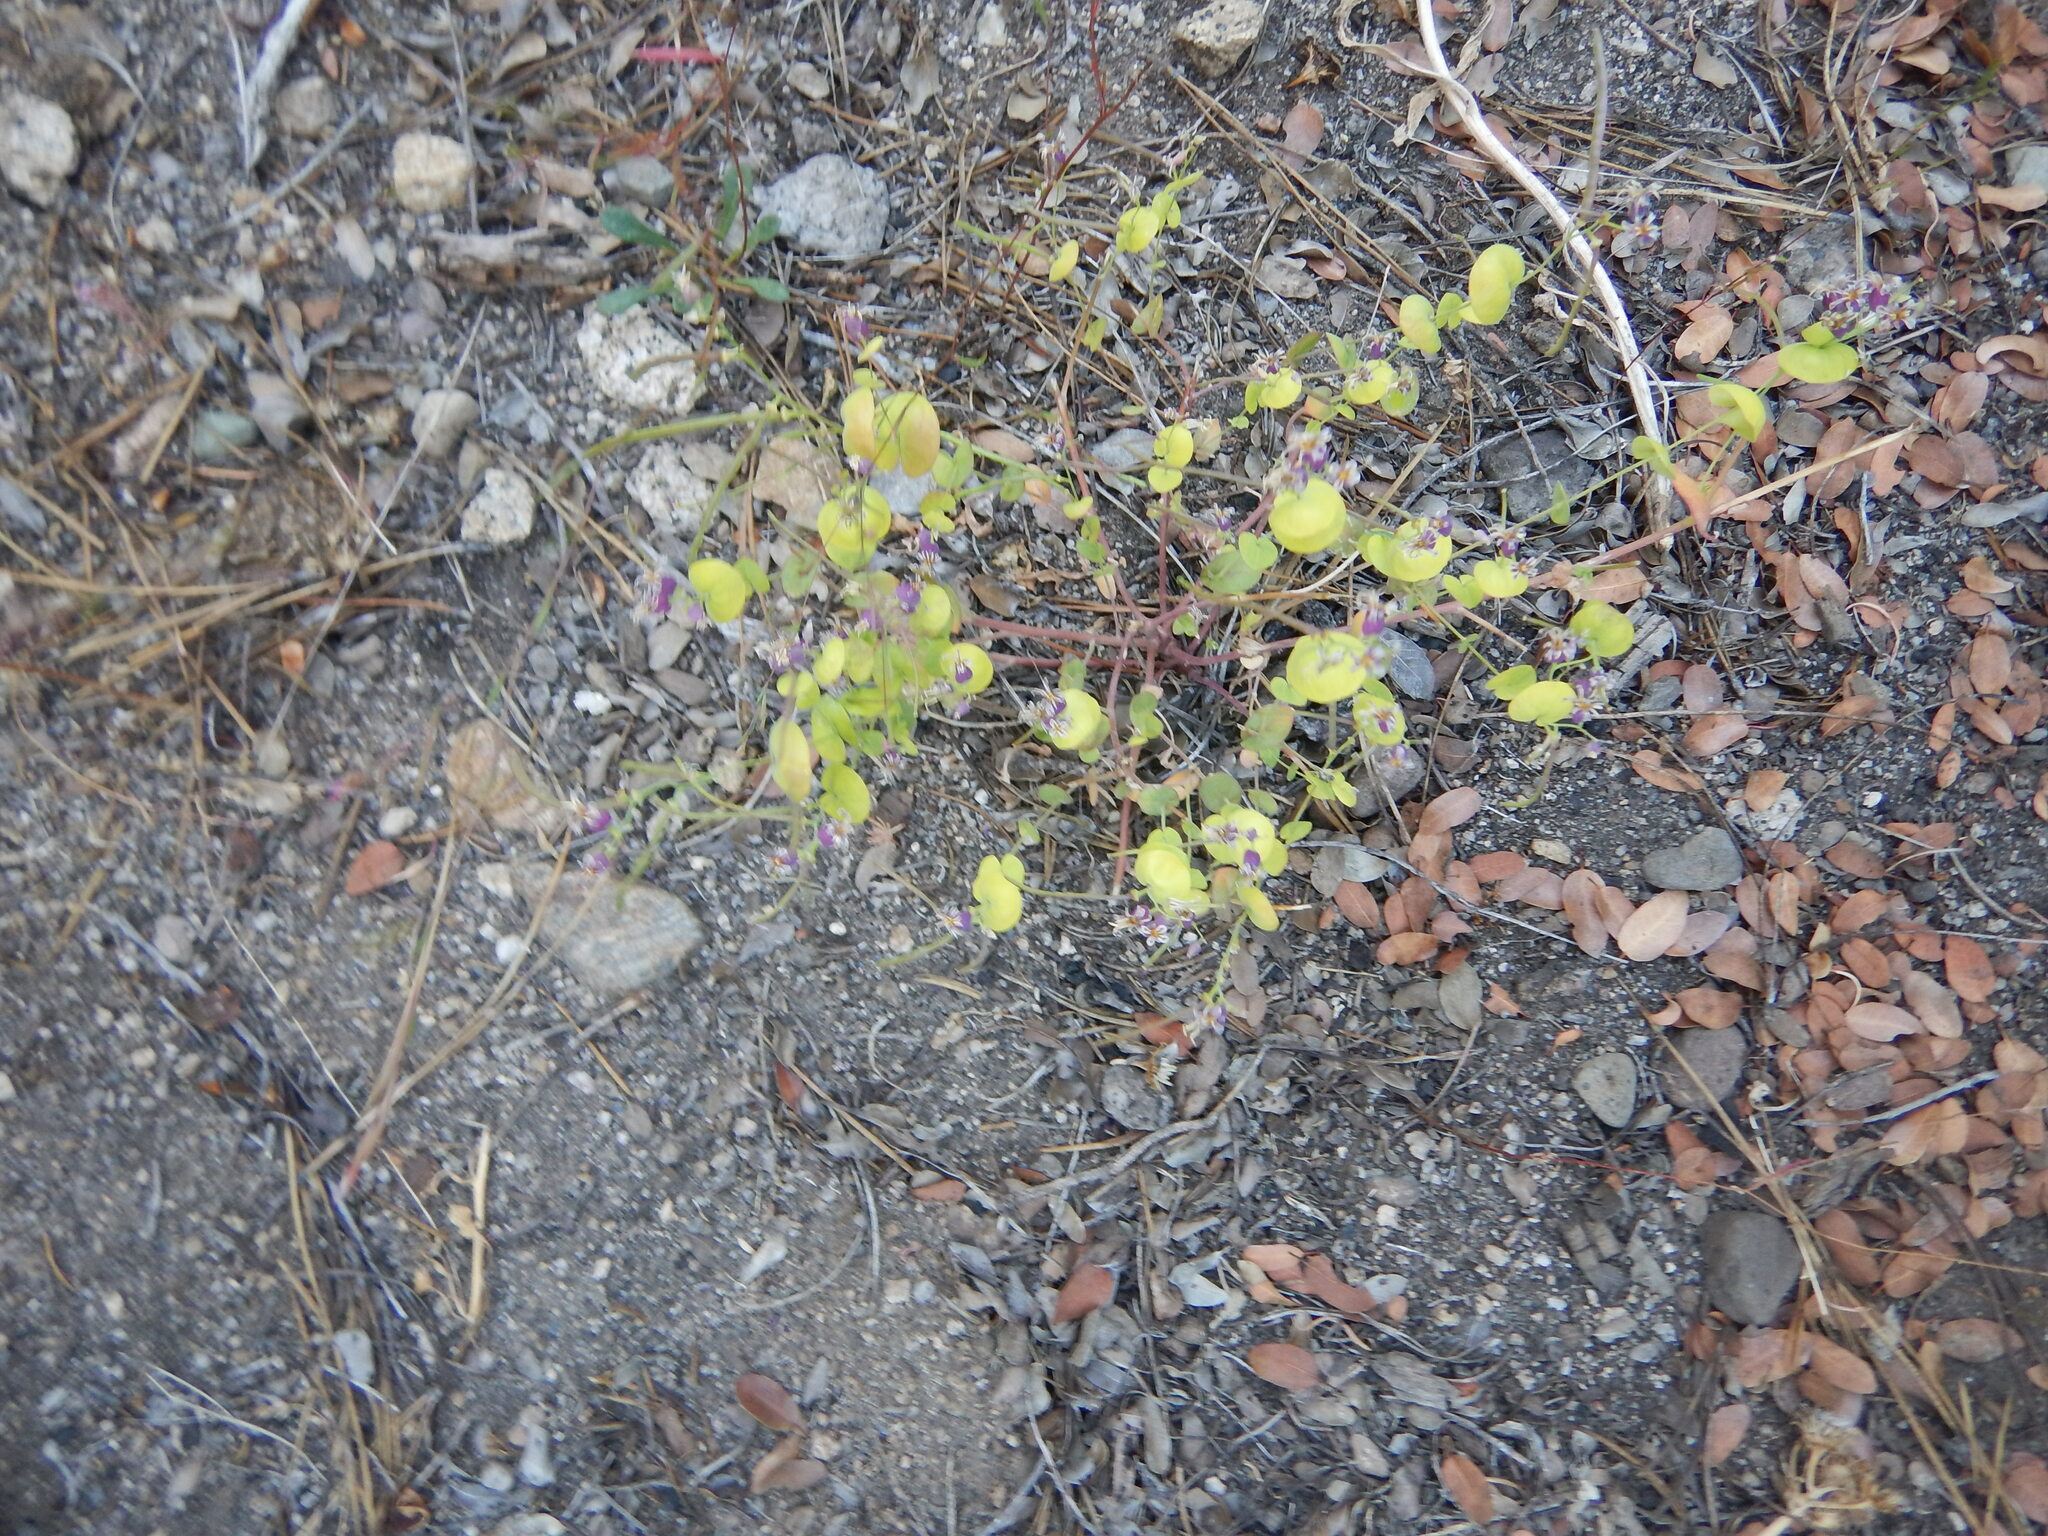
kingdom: Plantae
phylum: Tracheophyta
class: Magnoliopsida
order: Brassicales
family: Brassicaceae
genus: Streptanthus
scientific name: Streptanthus tortuosus
